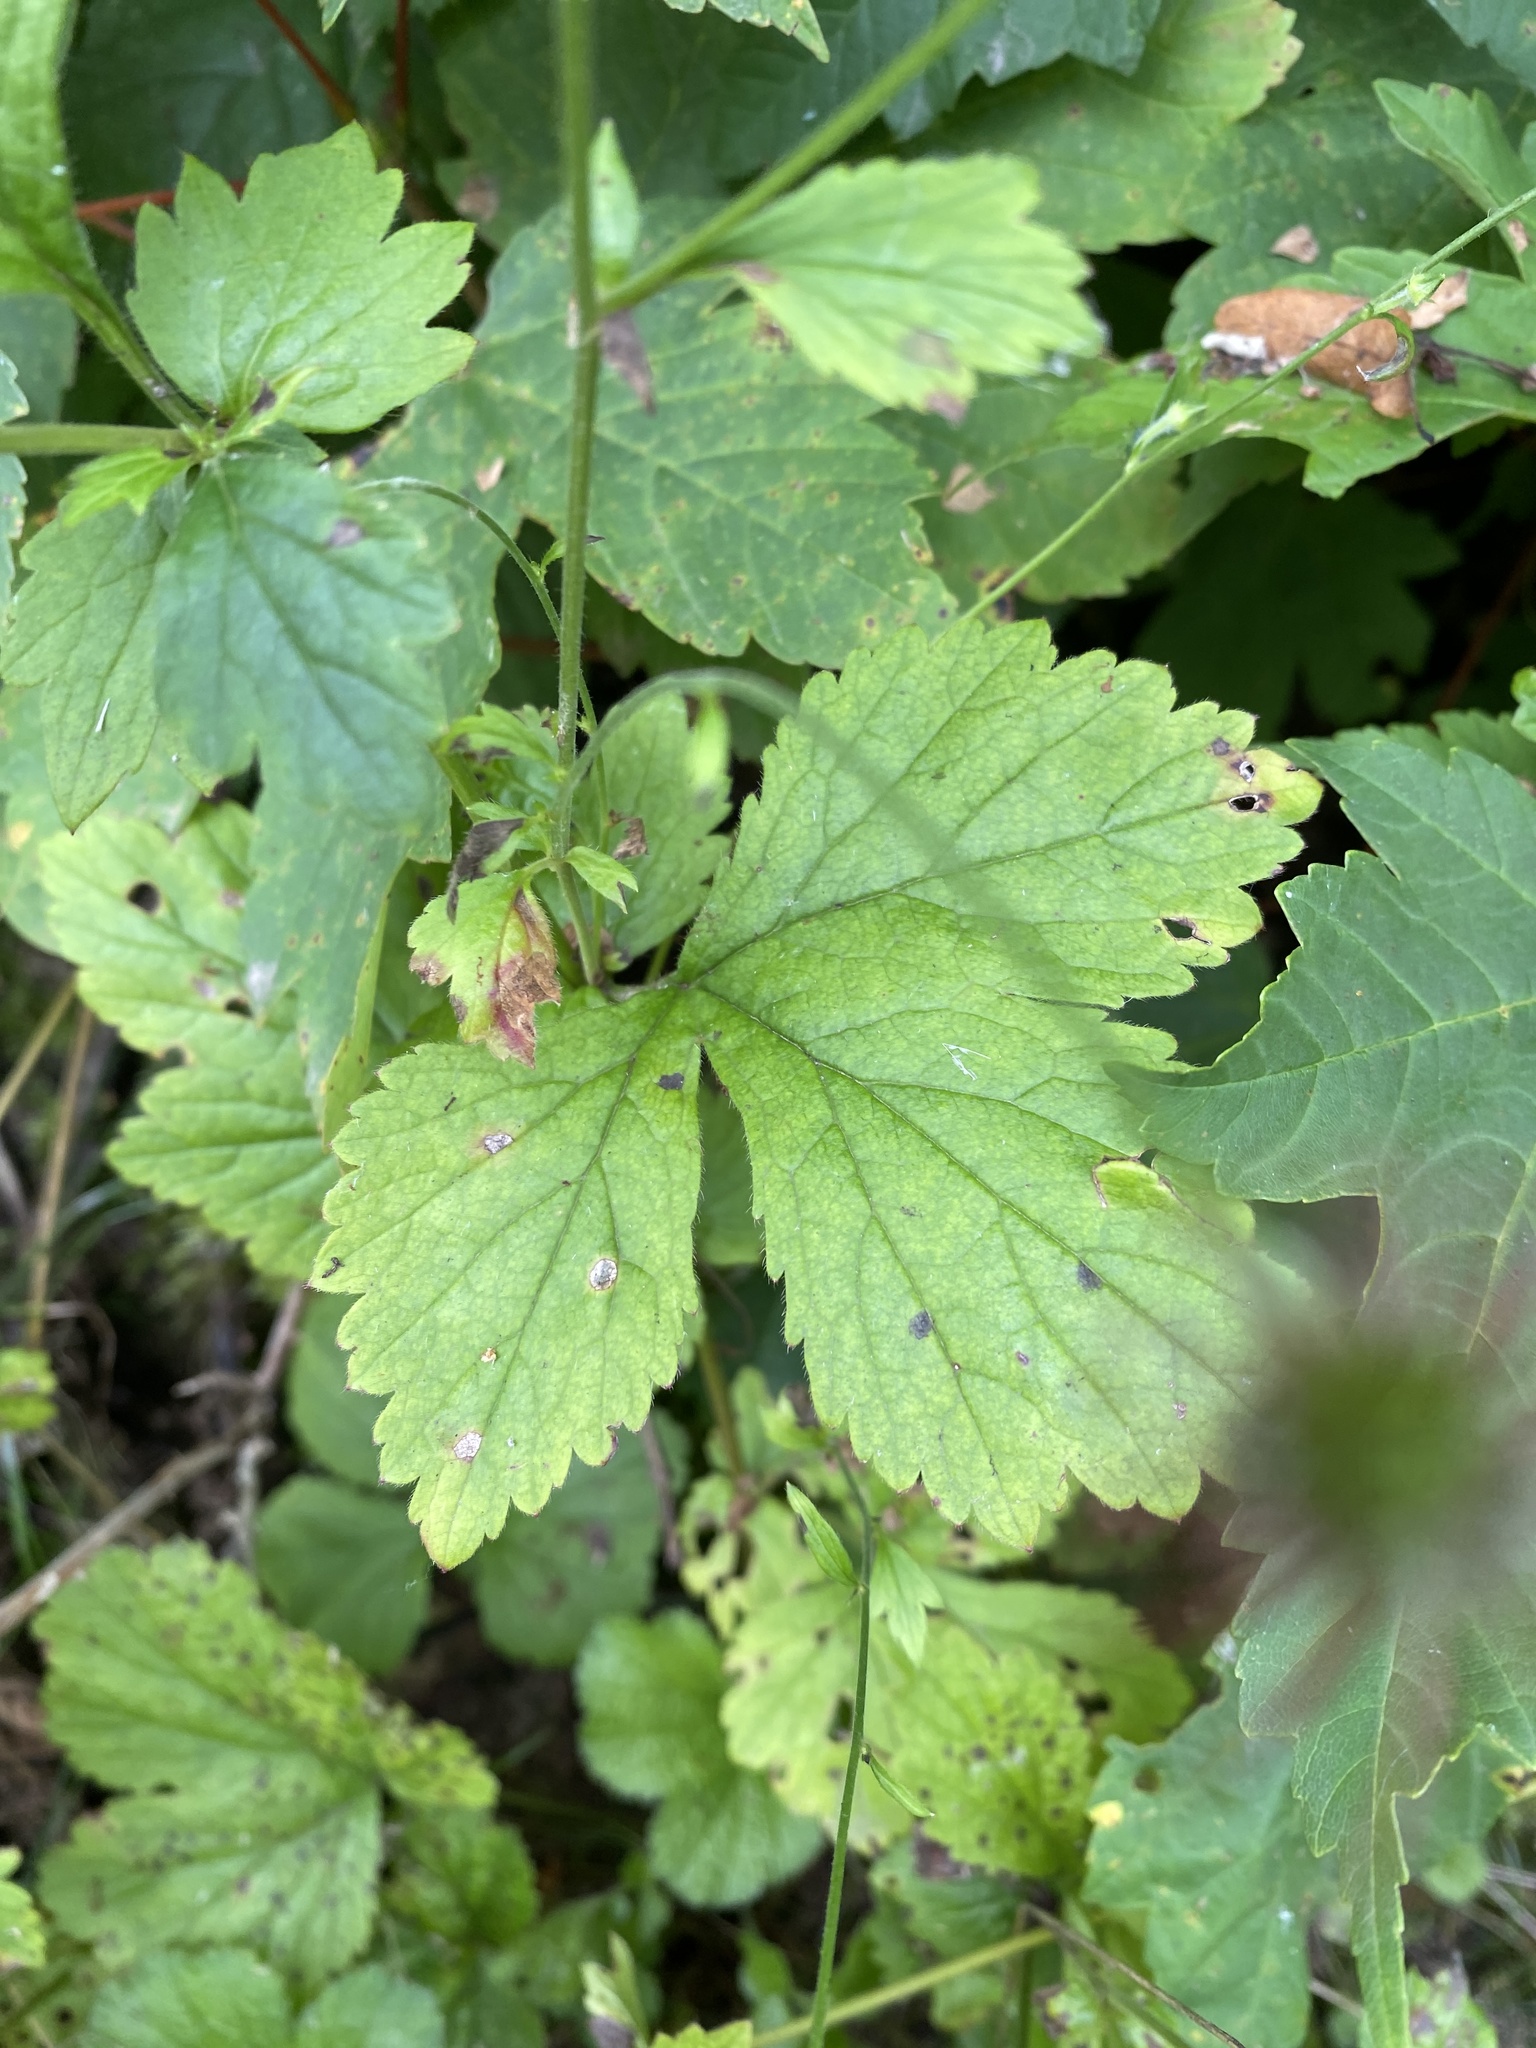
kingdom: Plantae
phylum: Tracheophyta
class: Magnoliopsida
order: Rosales
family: Rosaceae
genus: Geum
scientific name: Geum urbanum
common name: Wood avens
